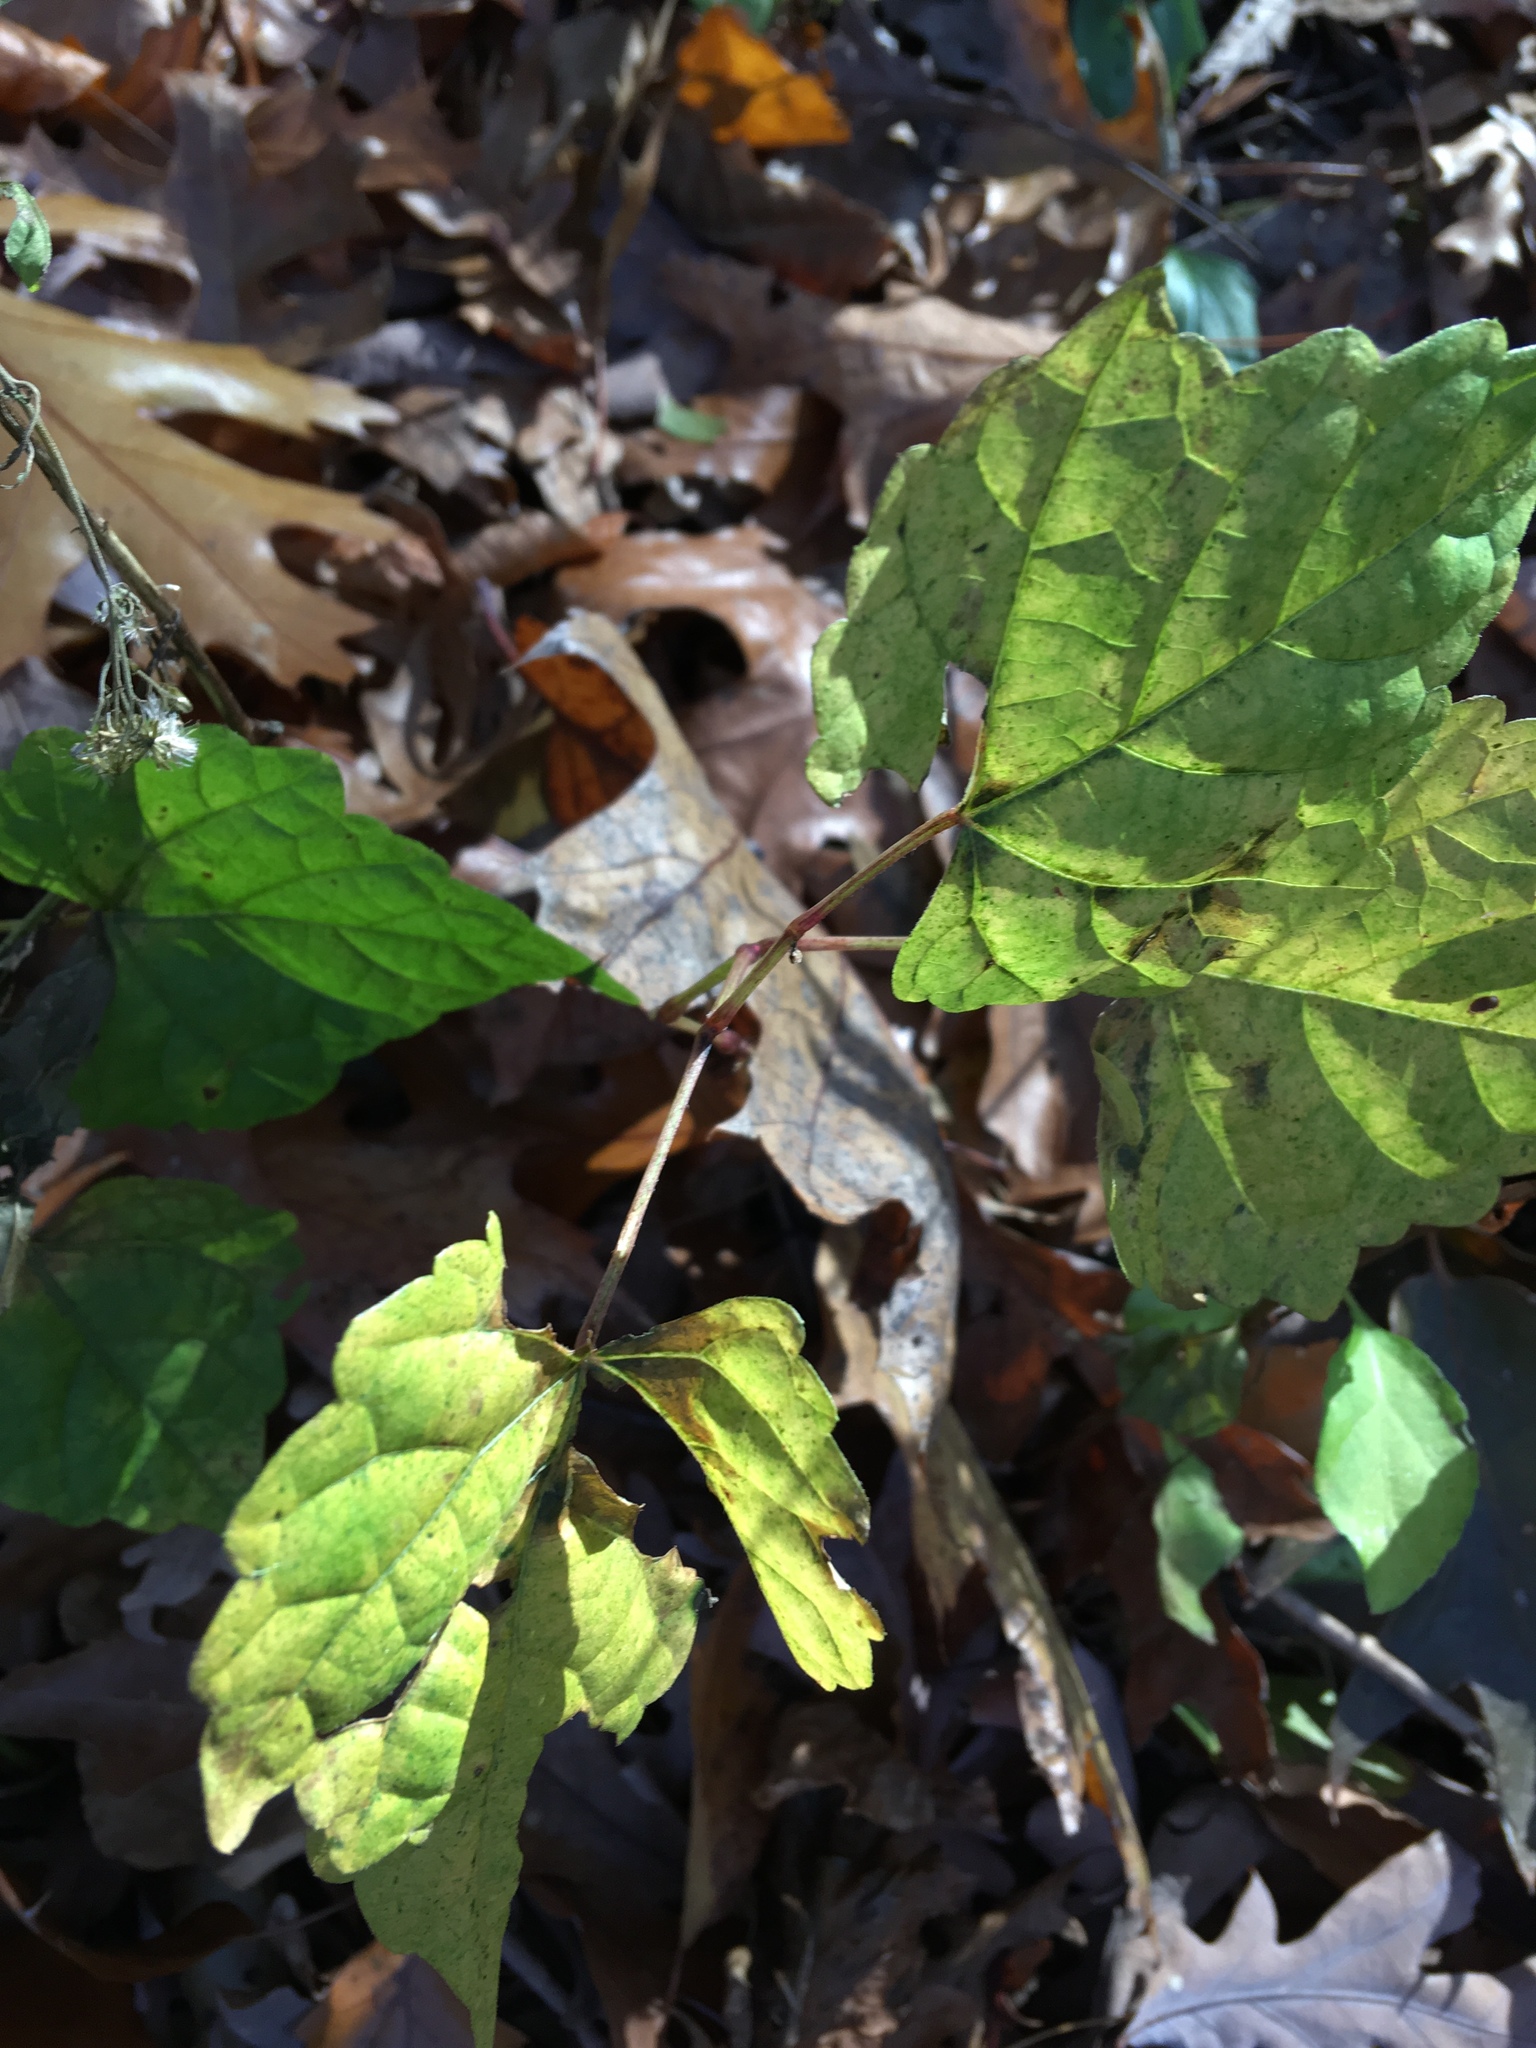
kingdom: Plantae
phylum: Tracheophyta
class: Magnoliopsida
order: Vitales
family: Vitaceae
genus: Ampelopsis
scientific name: Ampelopsis glandulosa
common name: Amur peppervine
